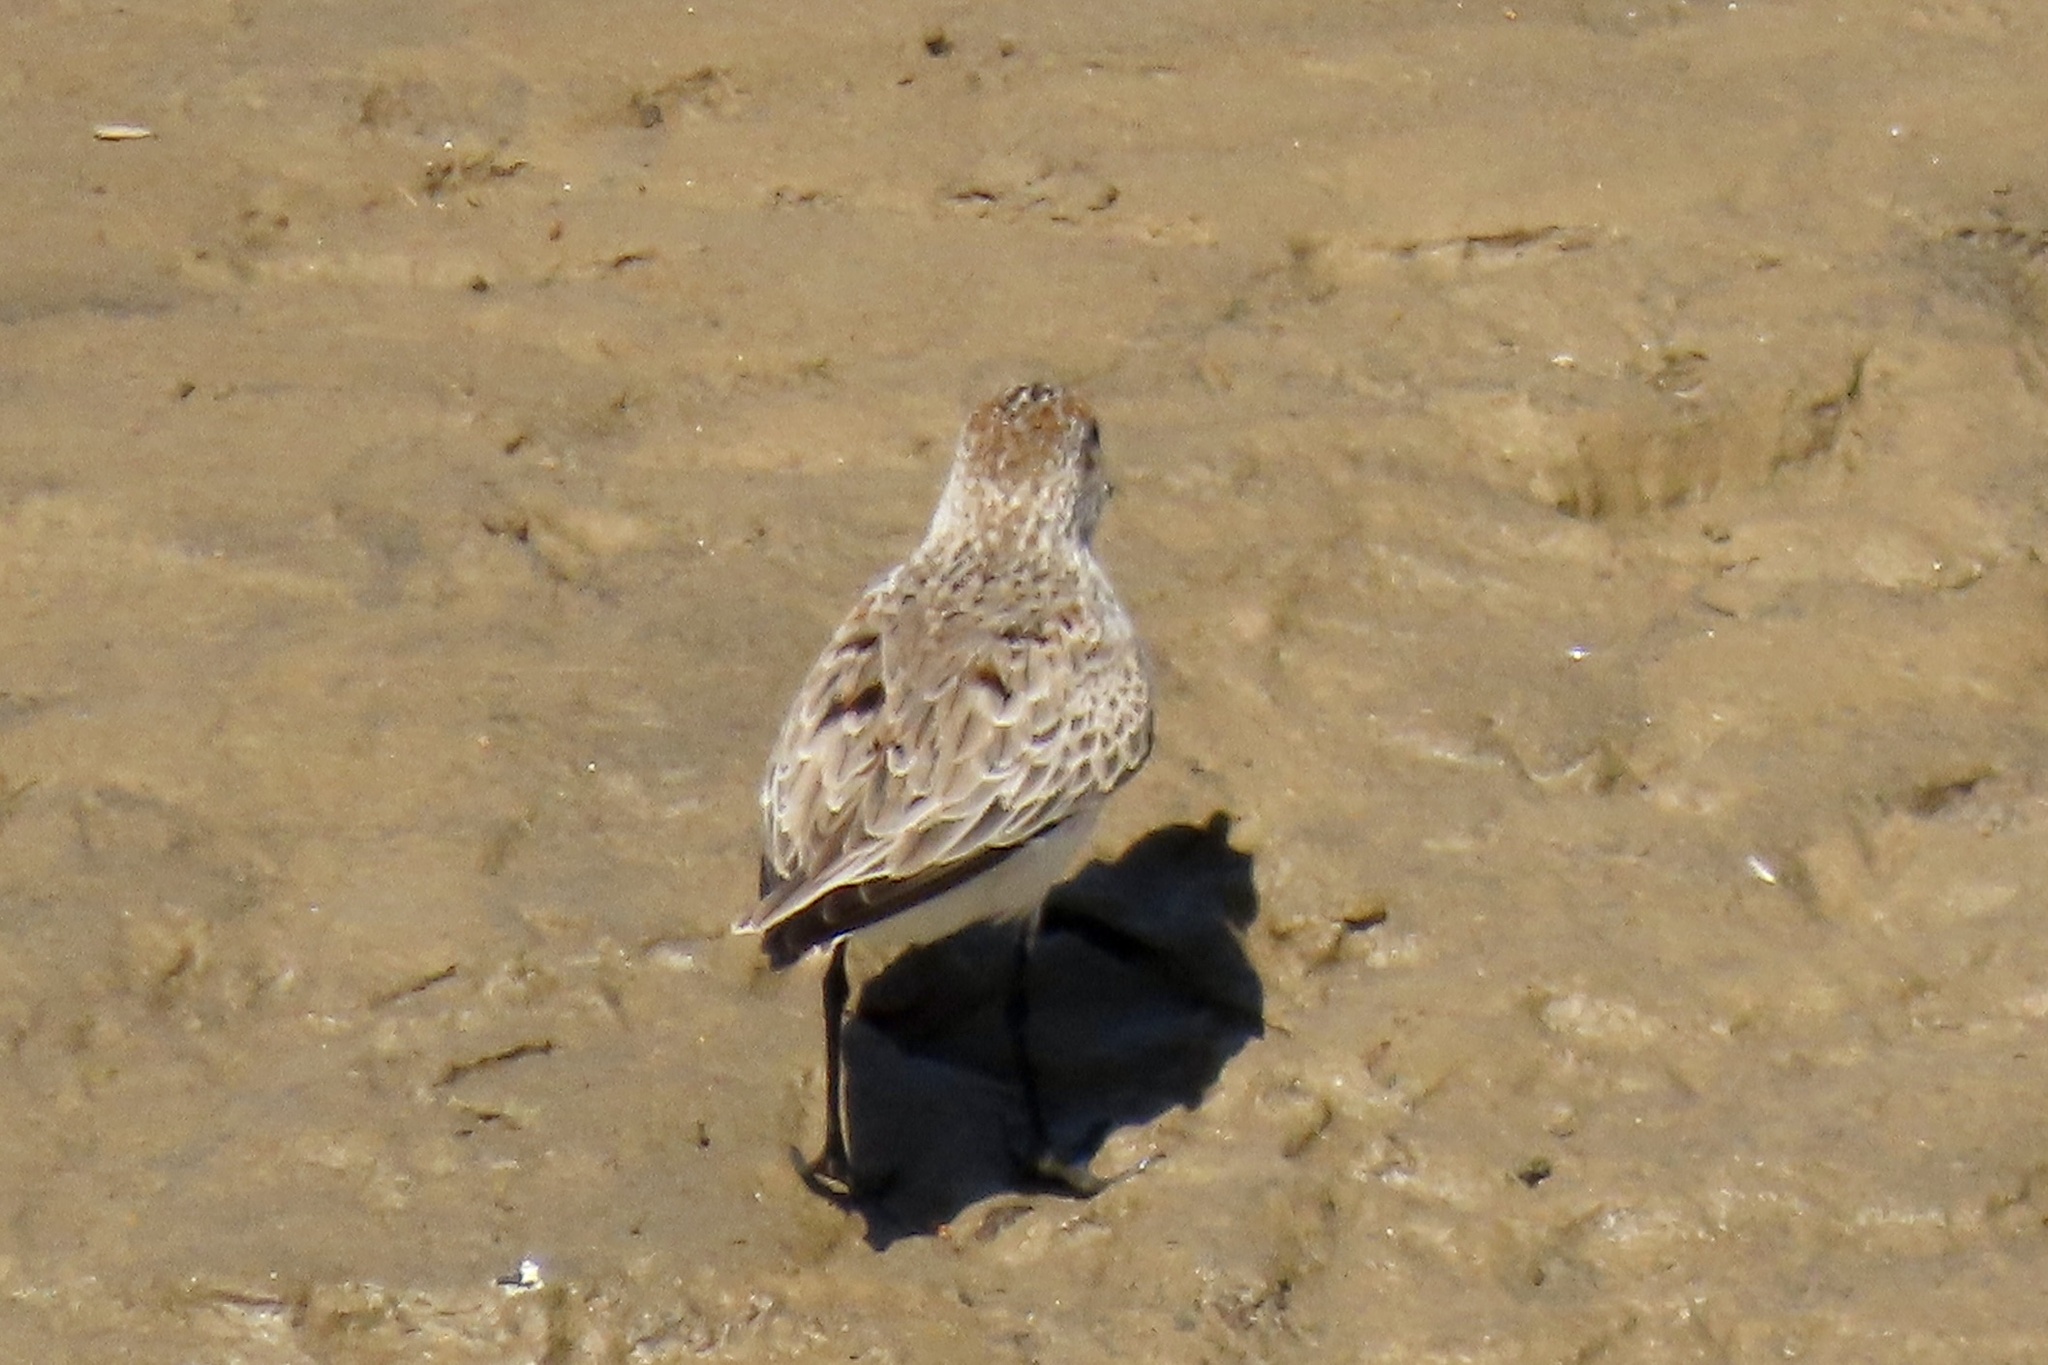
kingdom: Animalia
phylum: Chordata
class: Aves
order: Charadriiformes
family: Scolopacidae
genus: Calidris
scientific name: Calidris mauri
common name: Western sandpiper
